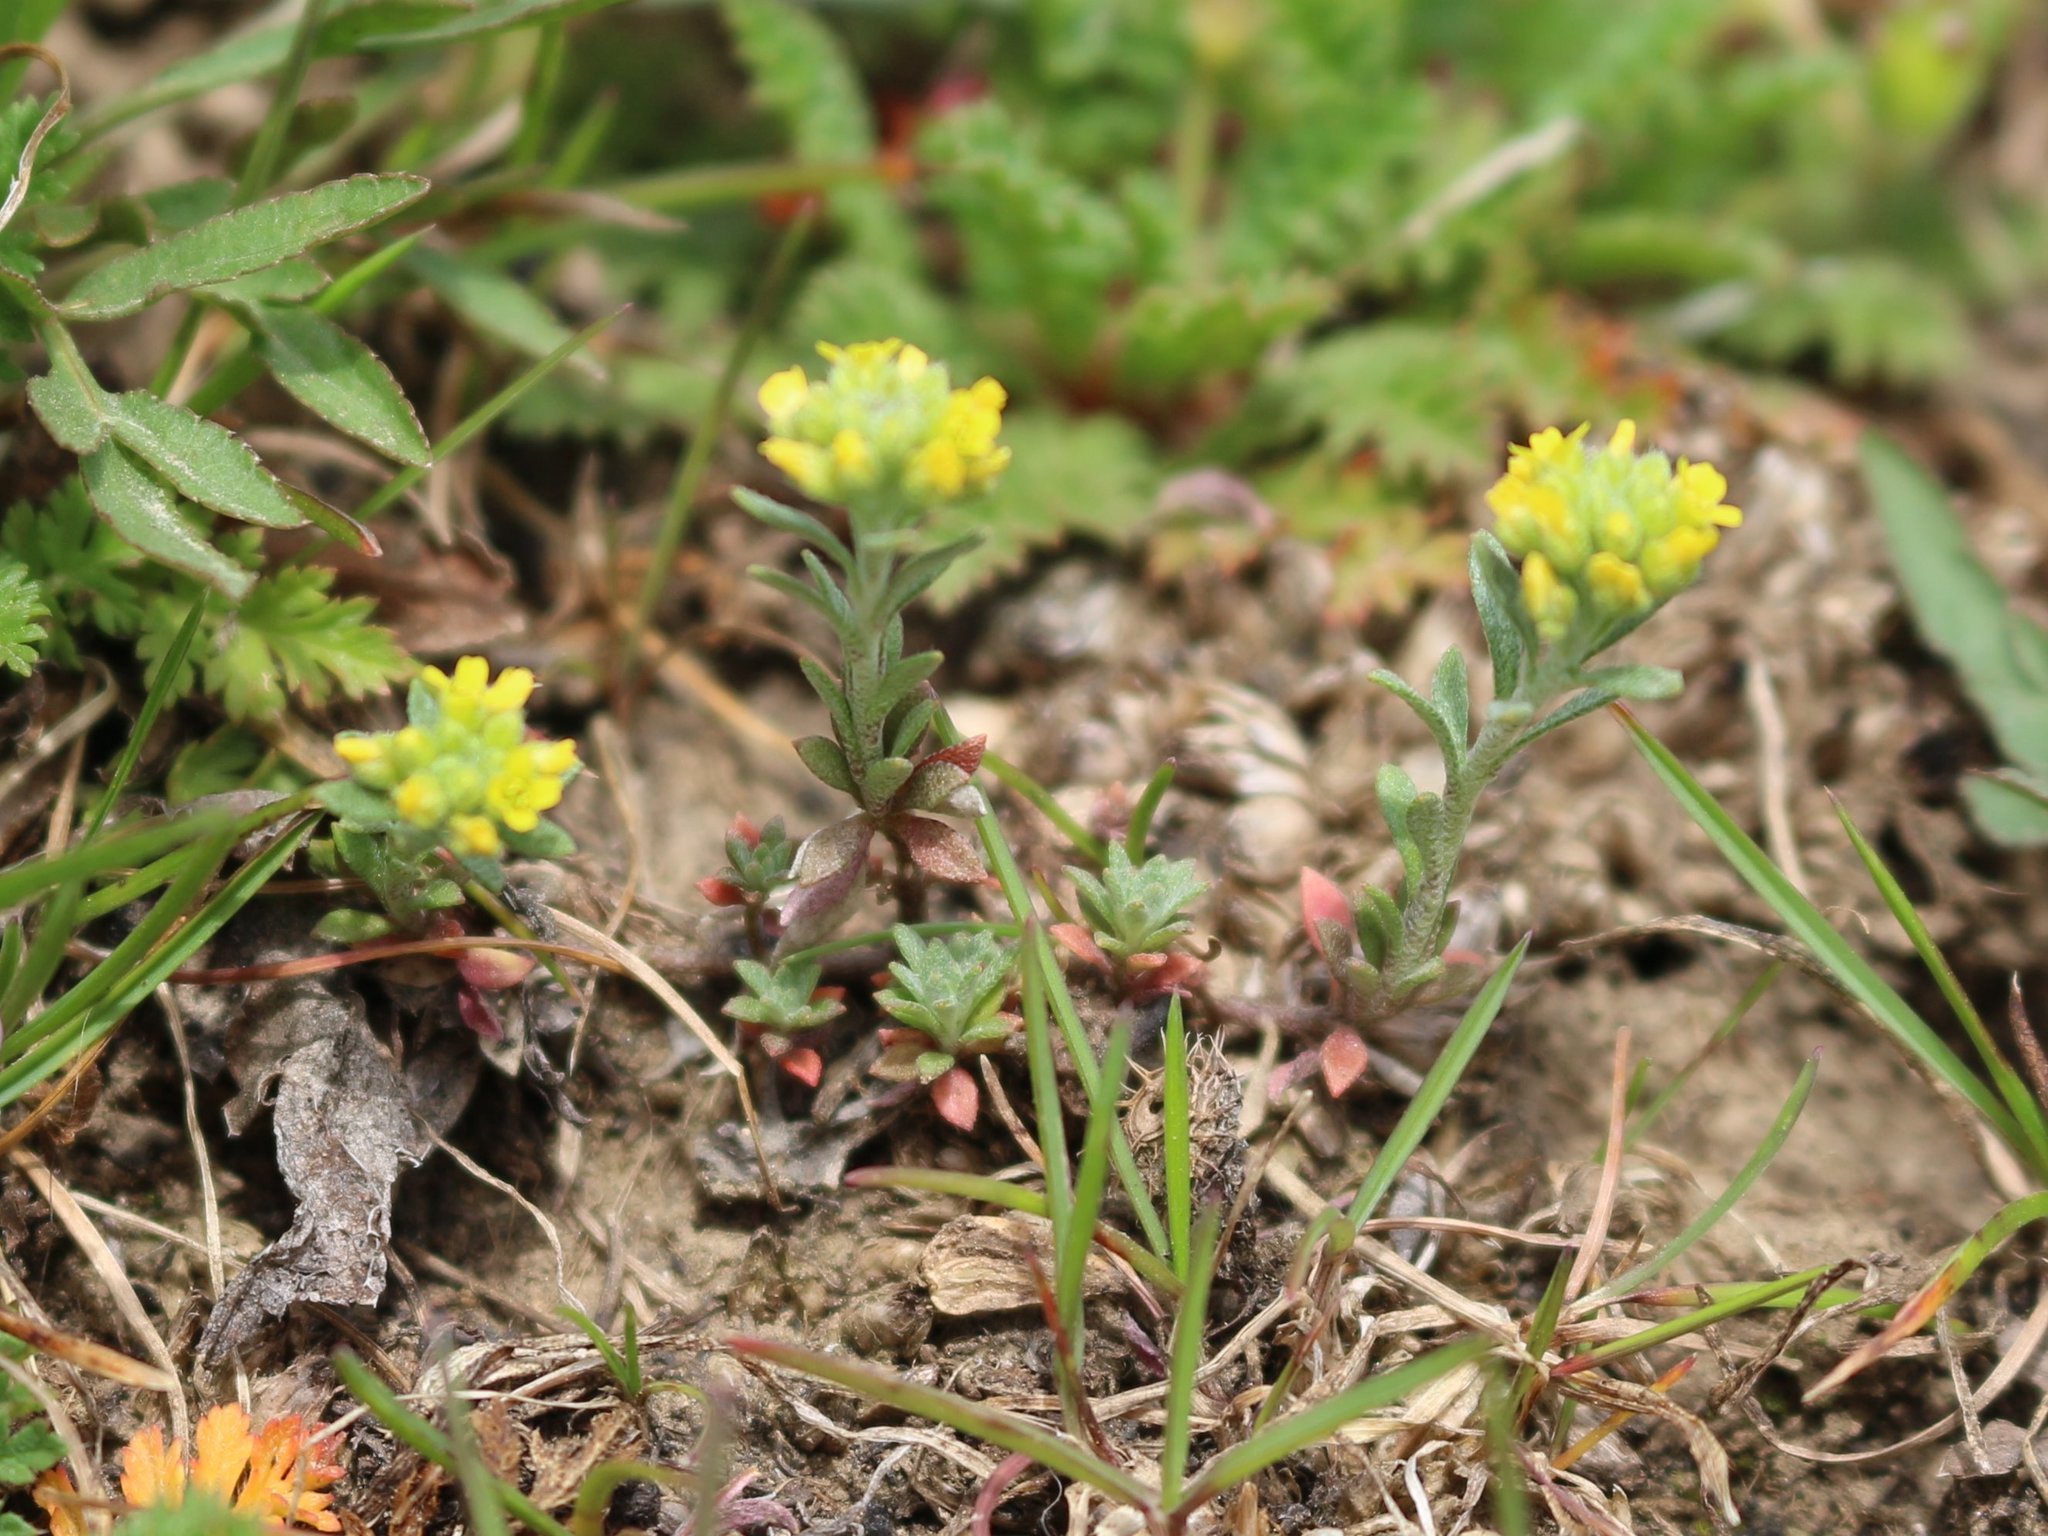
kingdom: Plantae
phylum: Tracheophyta
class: Magnoliopsida
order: Brassicales
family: Brassicaceae
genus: Alyssum
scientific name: Alyssum turkestanicum
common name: Desert alyssum
